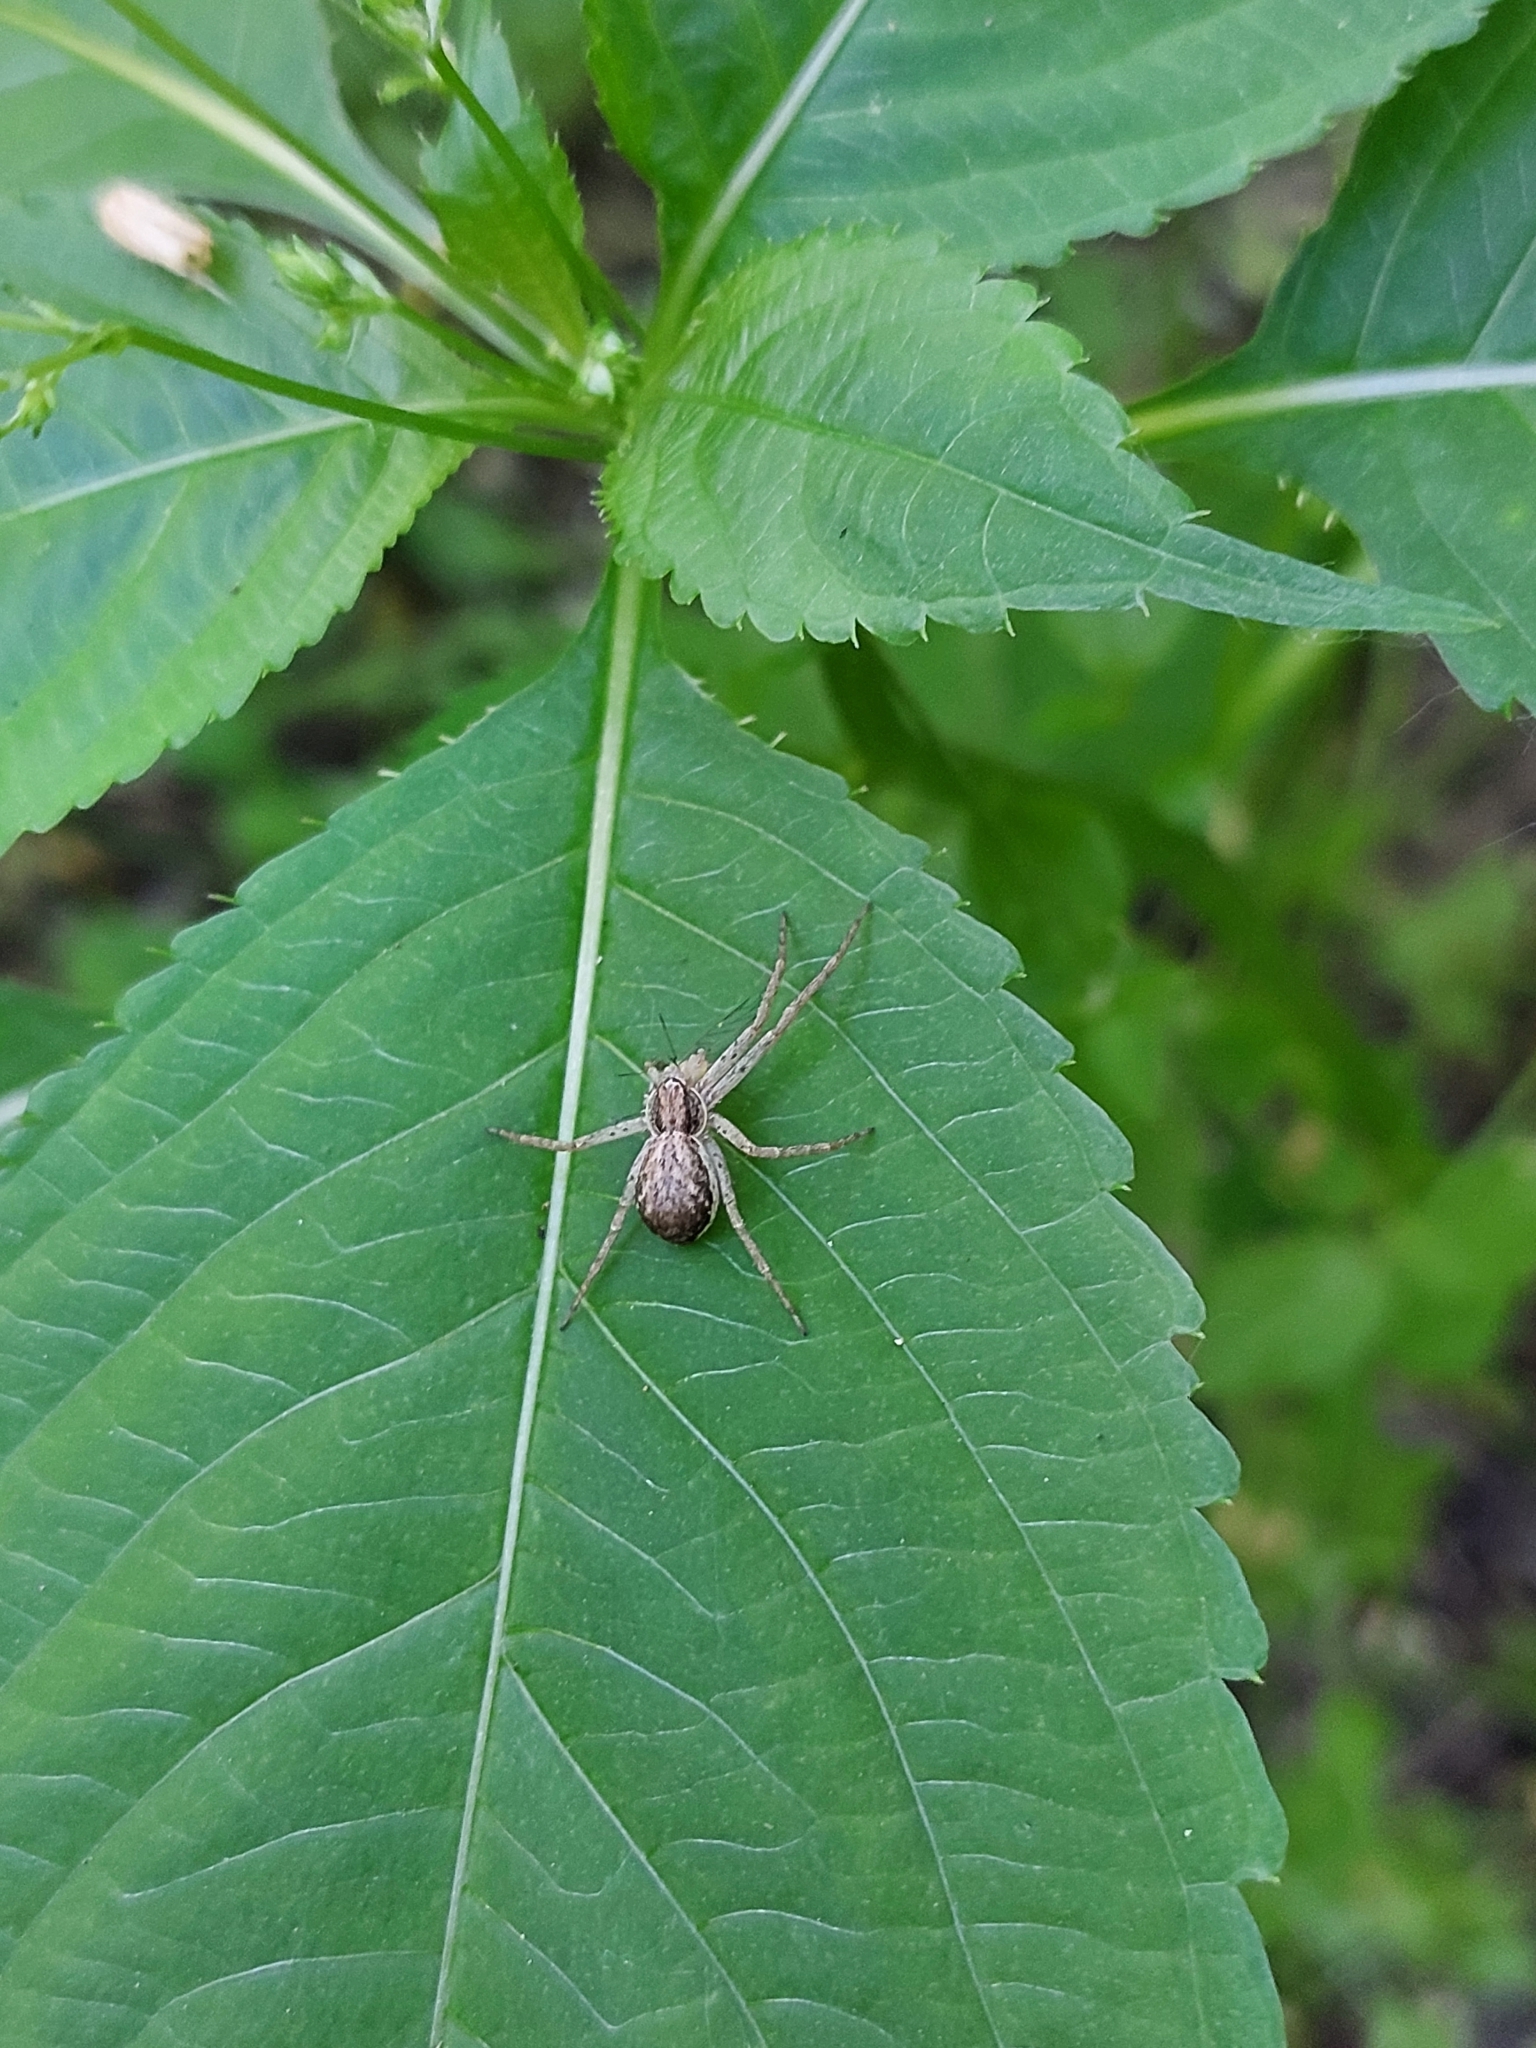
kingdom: Animalia
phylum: Arthropoda
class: Arachnida
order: Araneae
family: Philodromidae
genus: Philodromus
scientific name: Philodromus dispar
